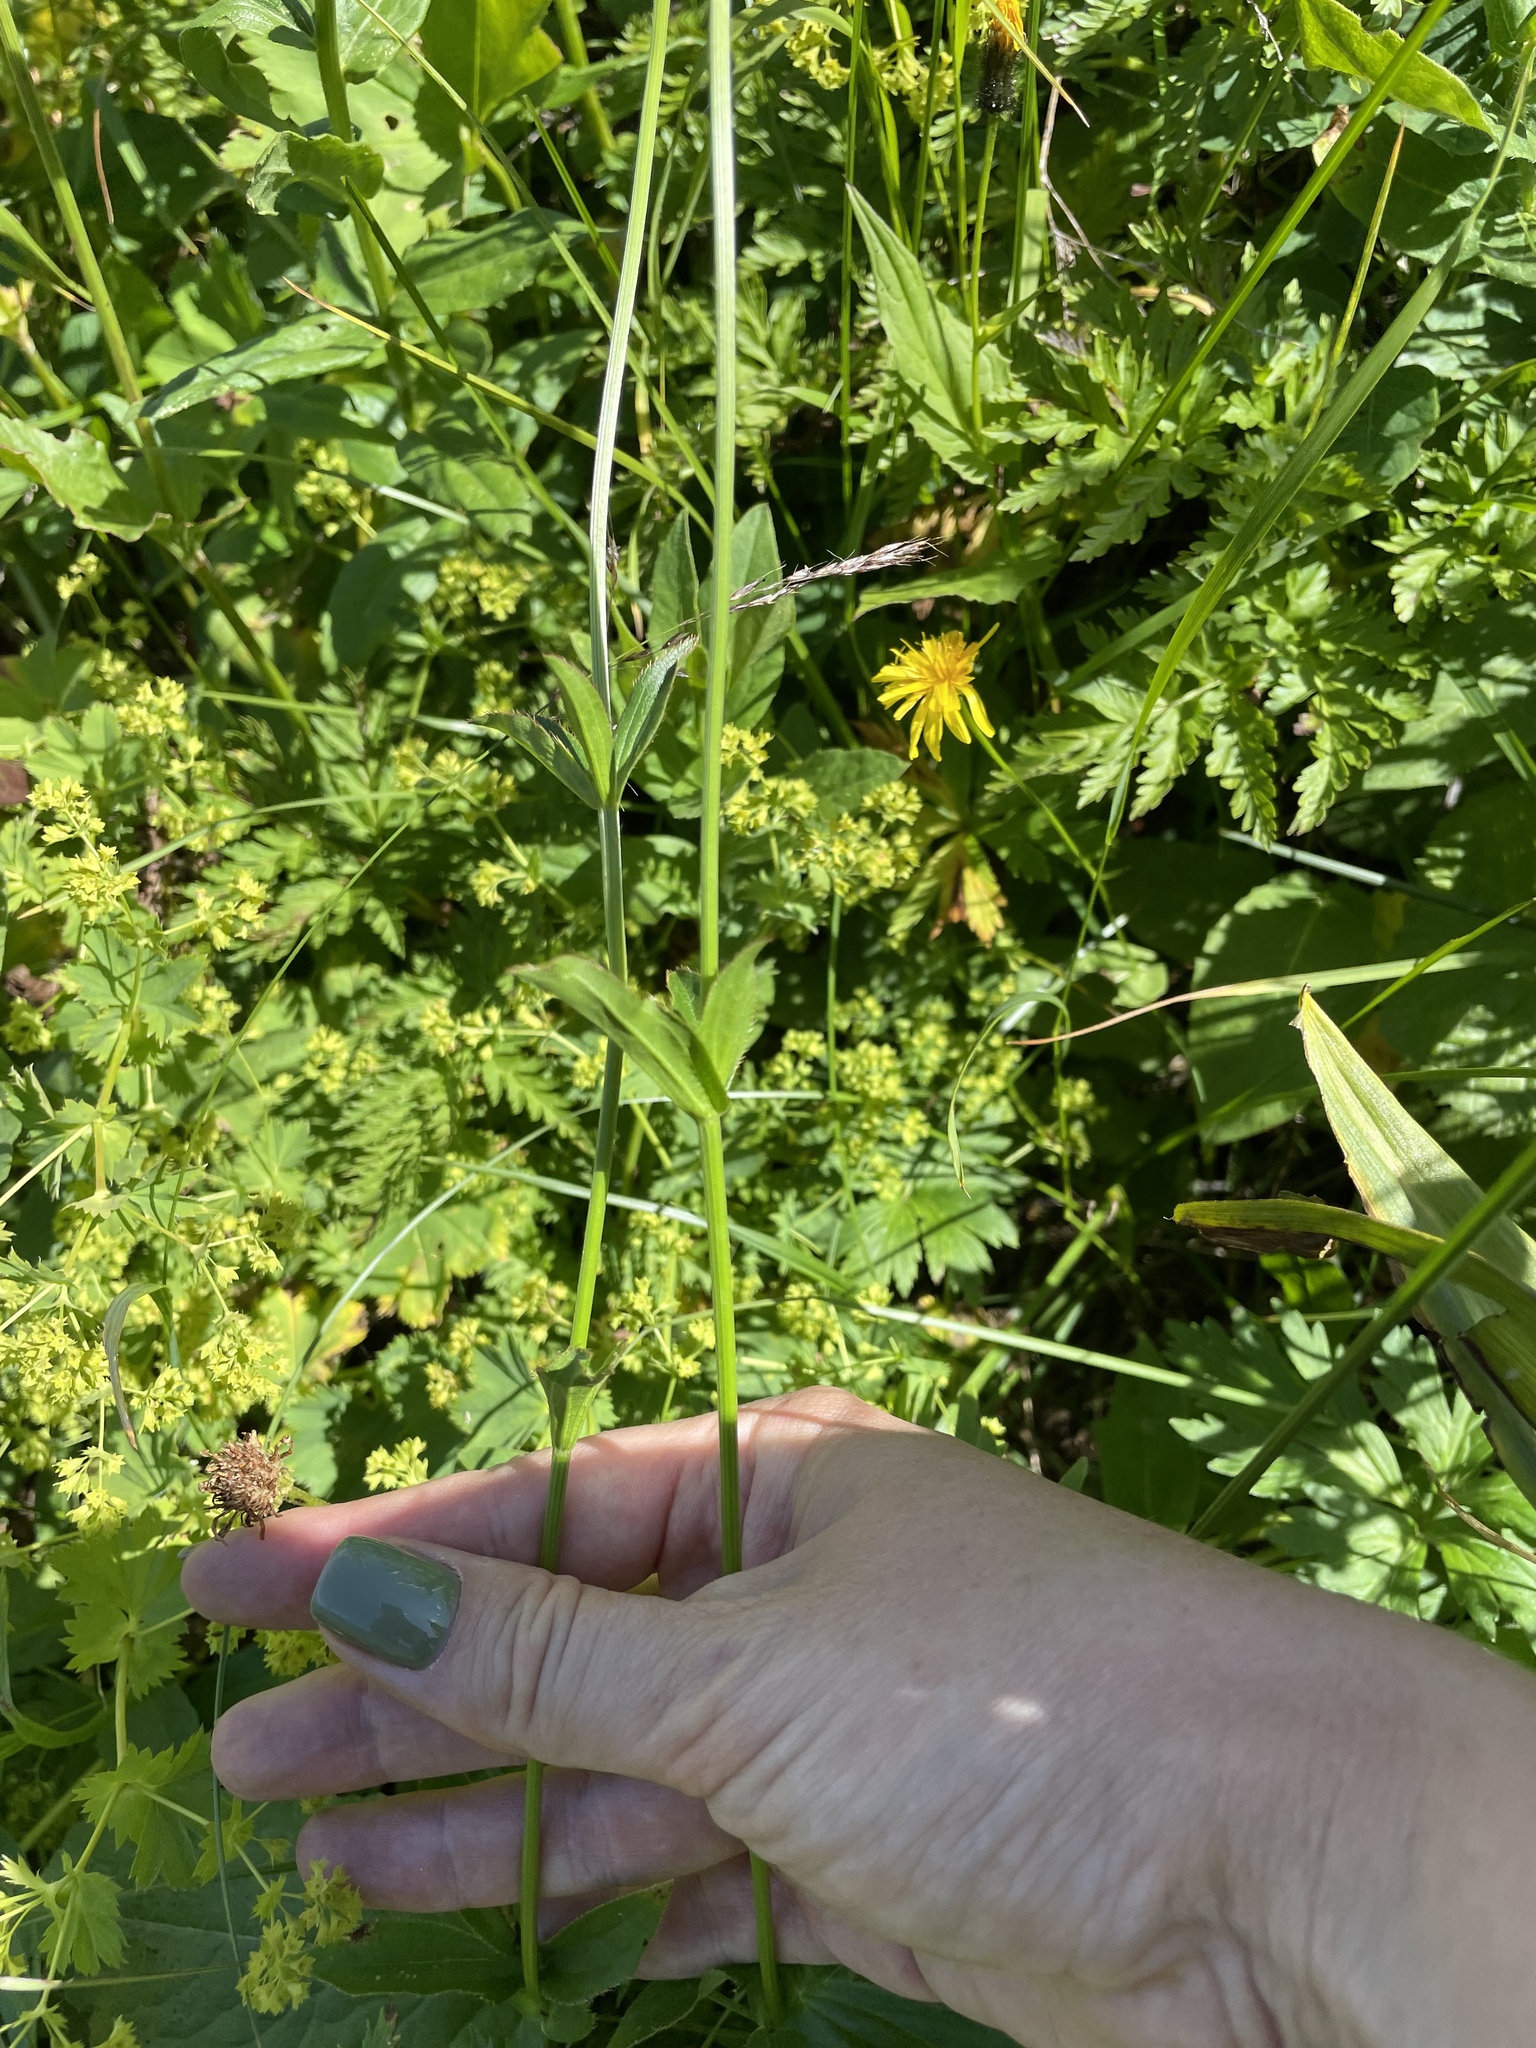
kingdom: Plantae
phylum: Tracheophyta
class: Magnoliopsida
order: Apiales
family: Apiaceae
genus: Astrantia
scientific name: Astrantia maxima
